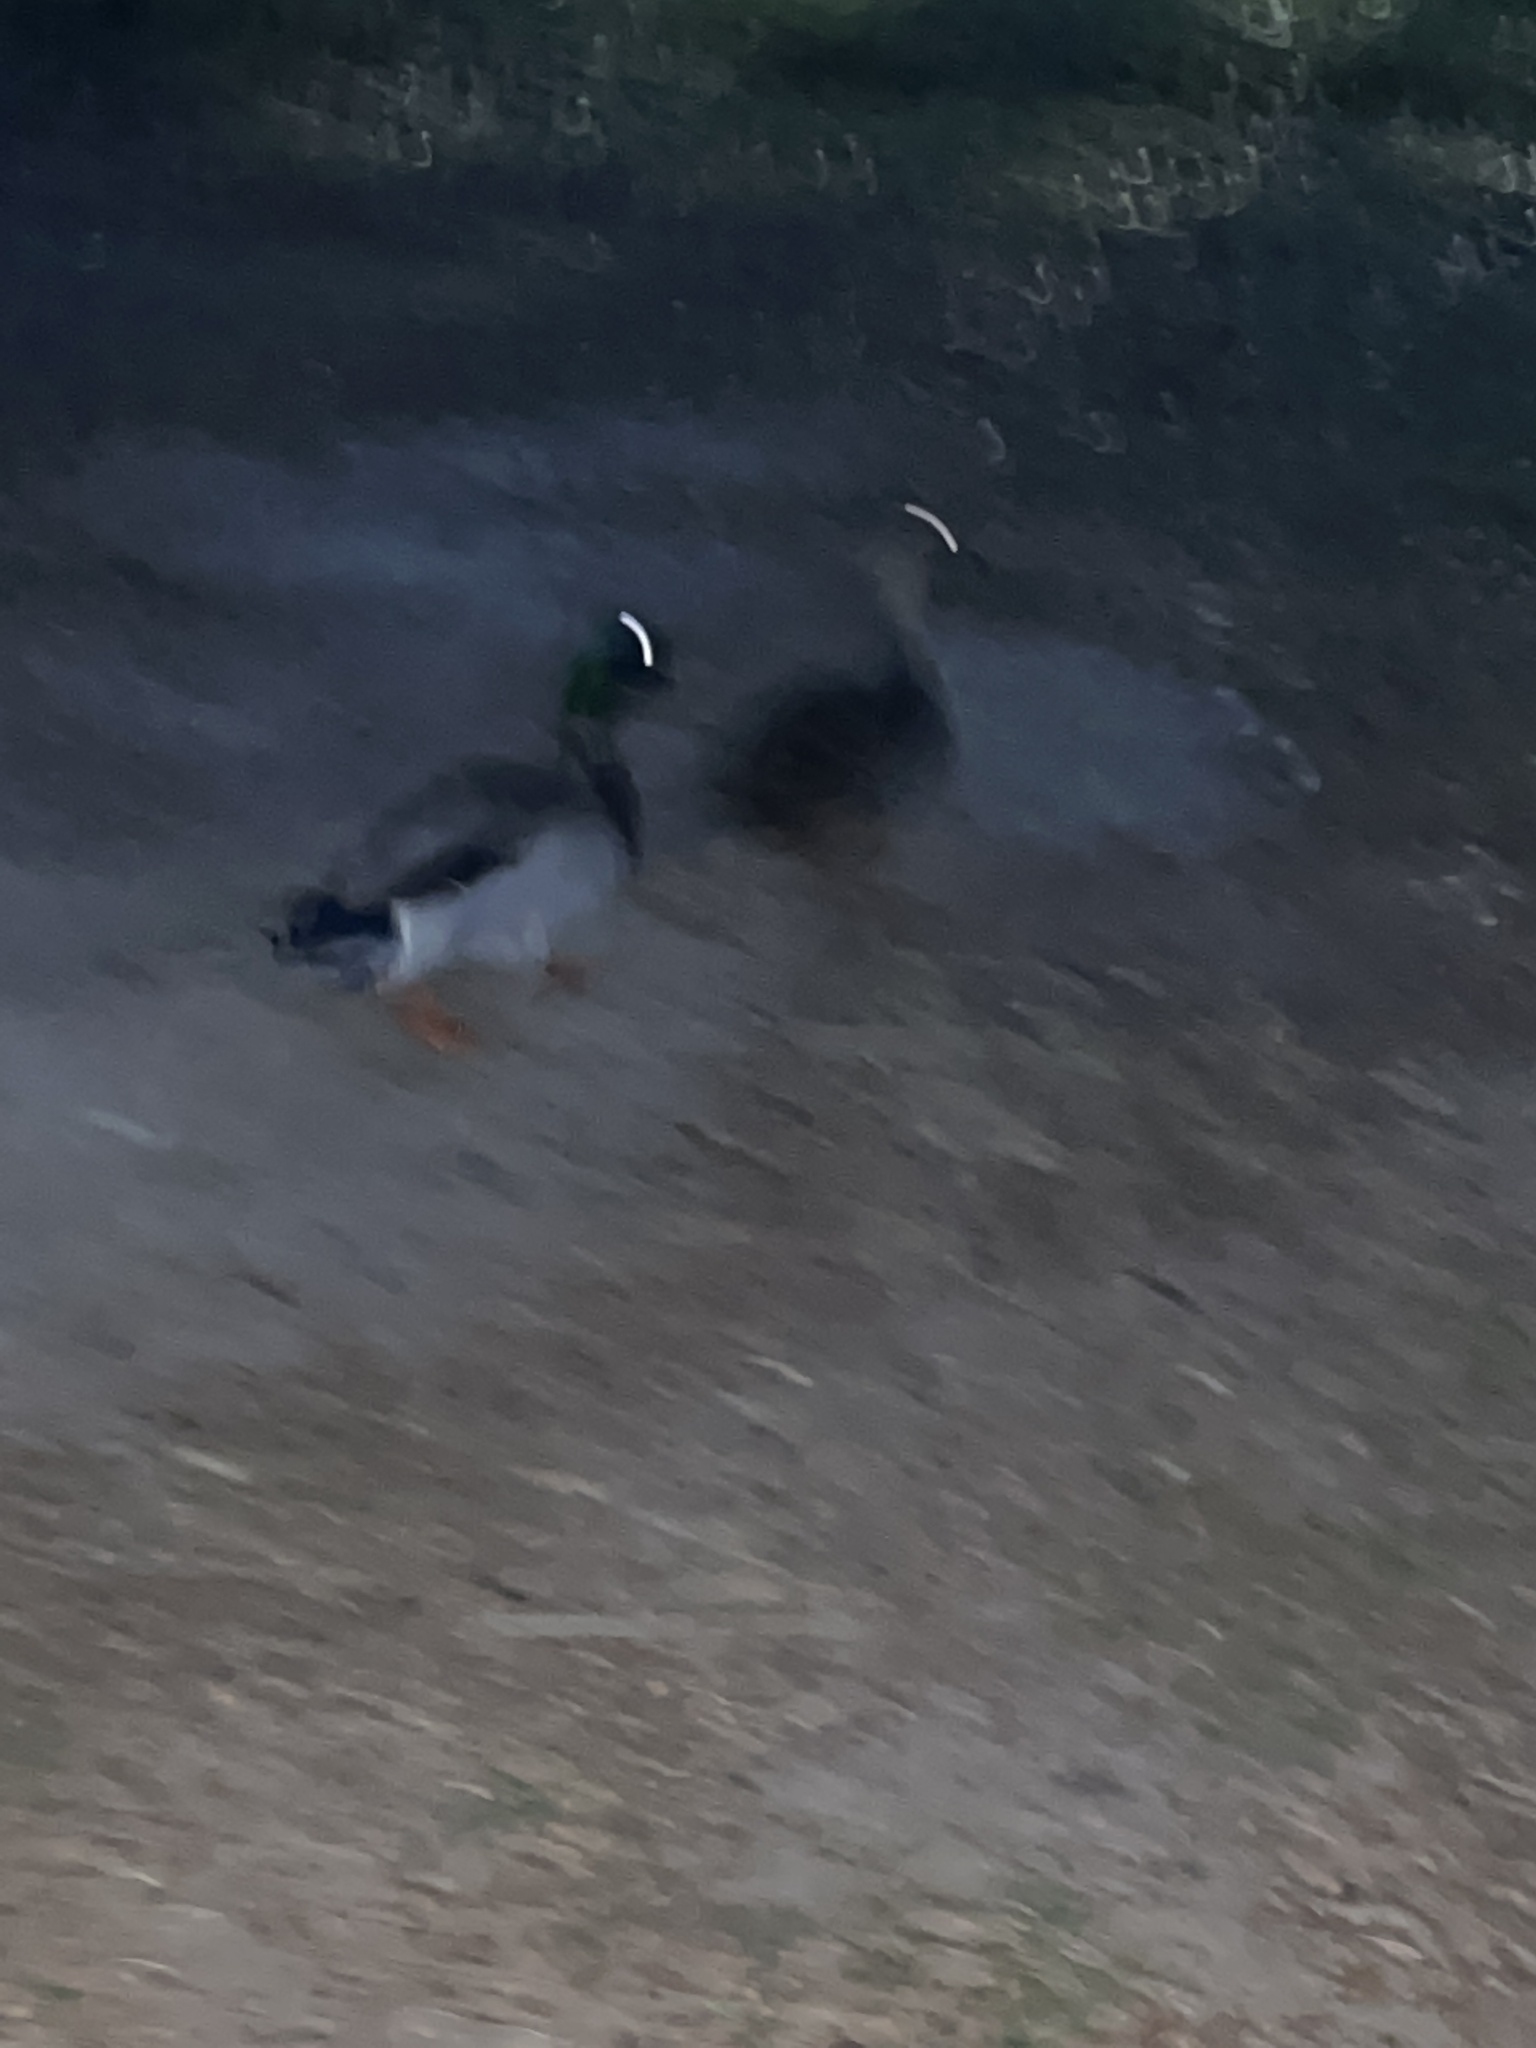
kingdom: Animalia
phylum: Chordata
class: Aves
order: Anseriformes
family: Anatidae
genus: Anas
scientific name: Anas platyrhynchos
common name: Mallard
